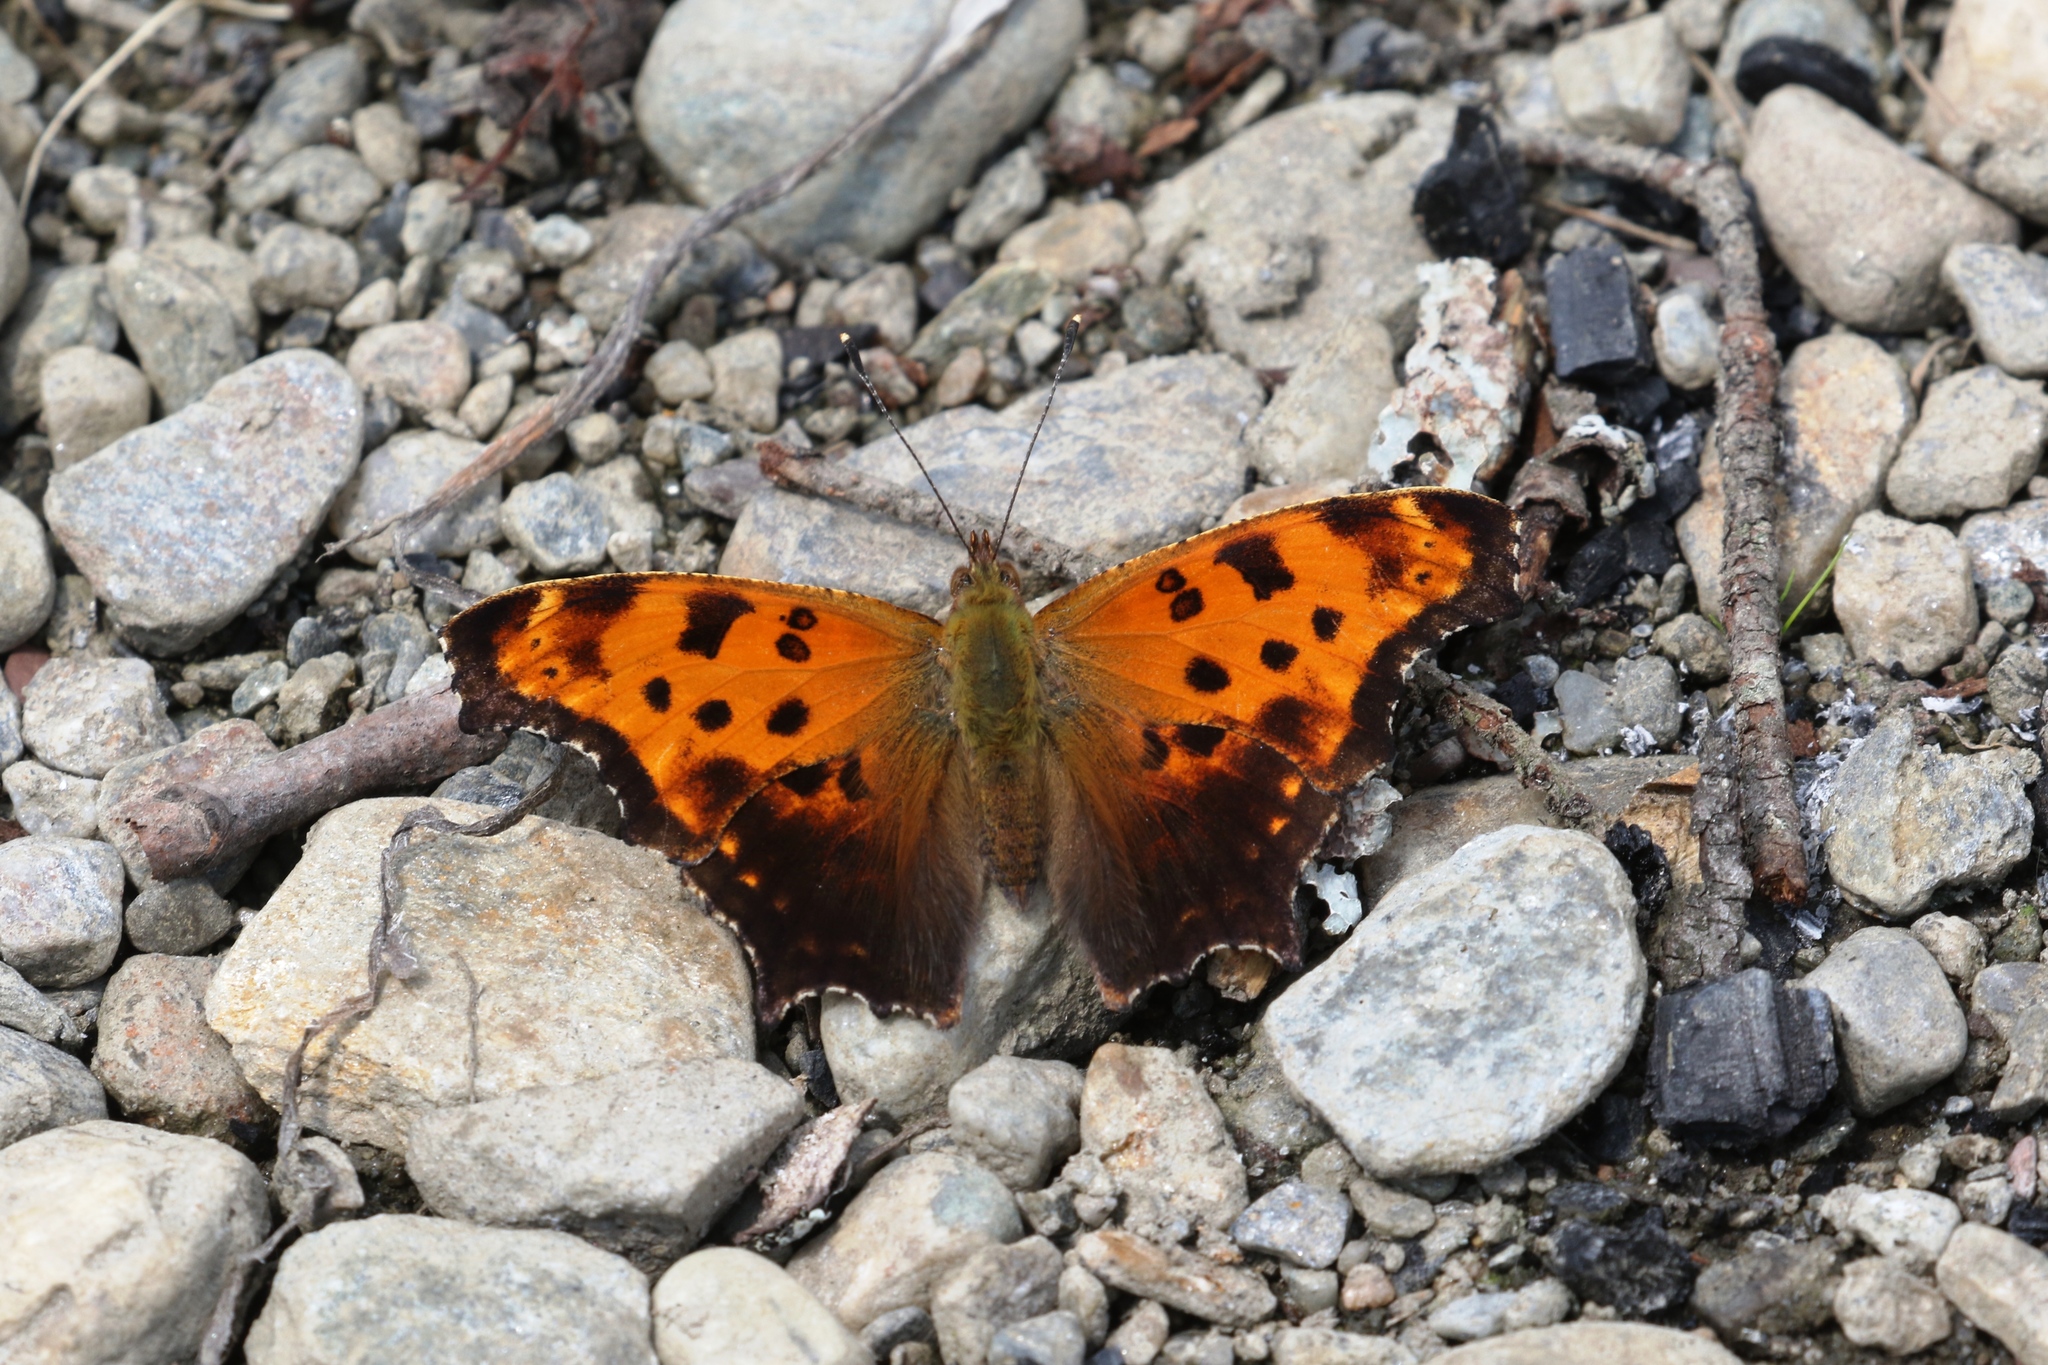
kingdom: Animalia
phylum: Arthropoda
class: Insecta
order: Lepidoptera
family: Nymphalidae
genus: Polygonia
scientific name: Polygonia comma
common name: Eastern comma
